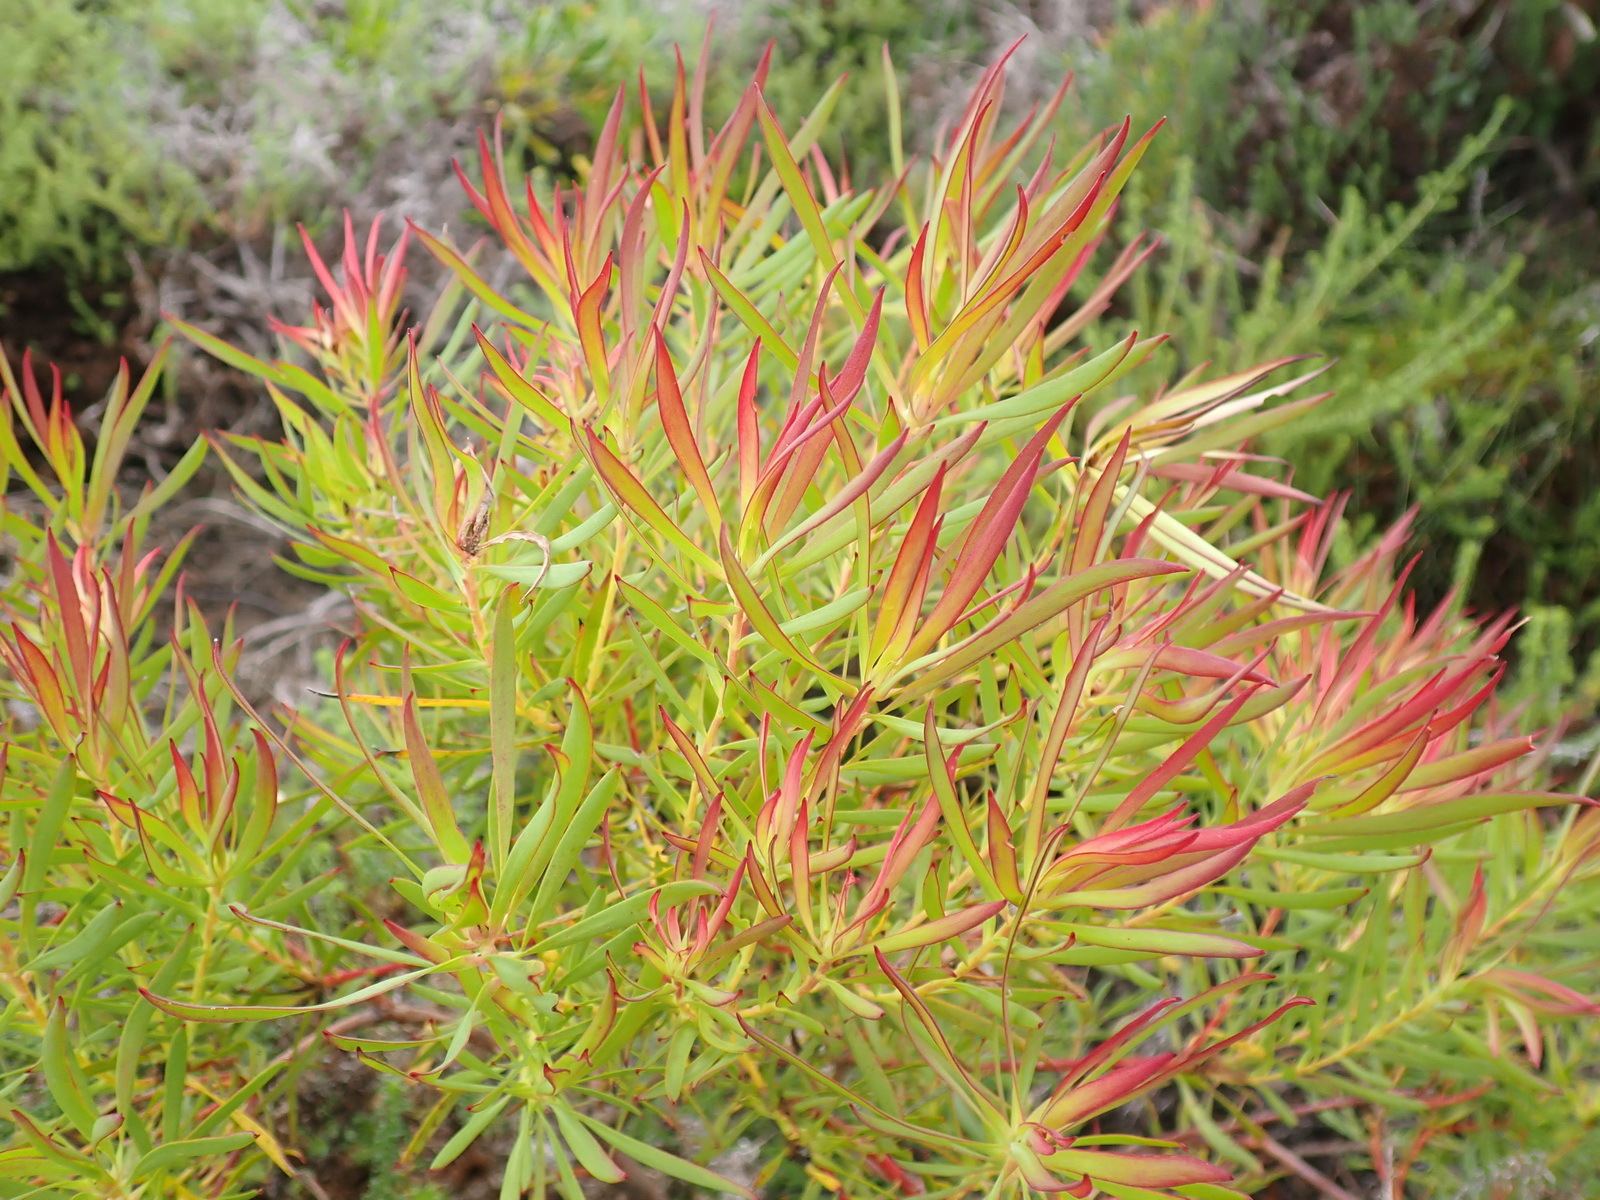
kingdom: Plantae
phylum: Tracheophyta
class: Magnoliopsida
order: Proteales
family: Proteaceae
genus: Leucadendron
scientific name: Leucadendron salignum
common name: Common sunshine conebush
